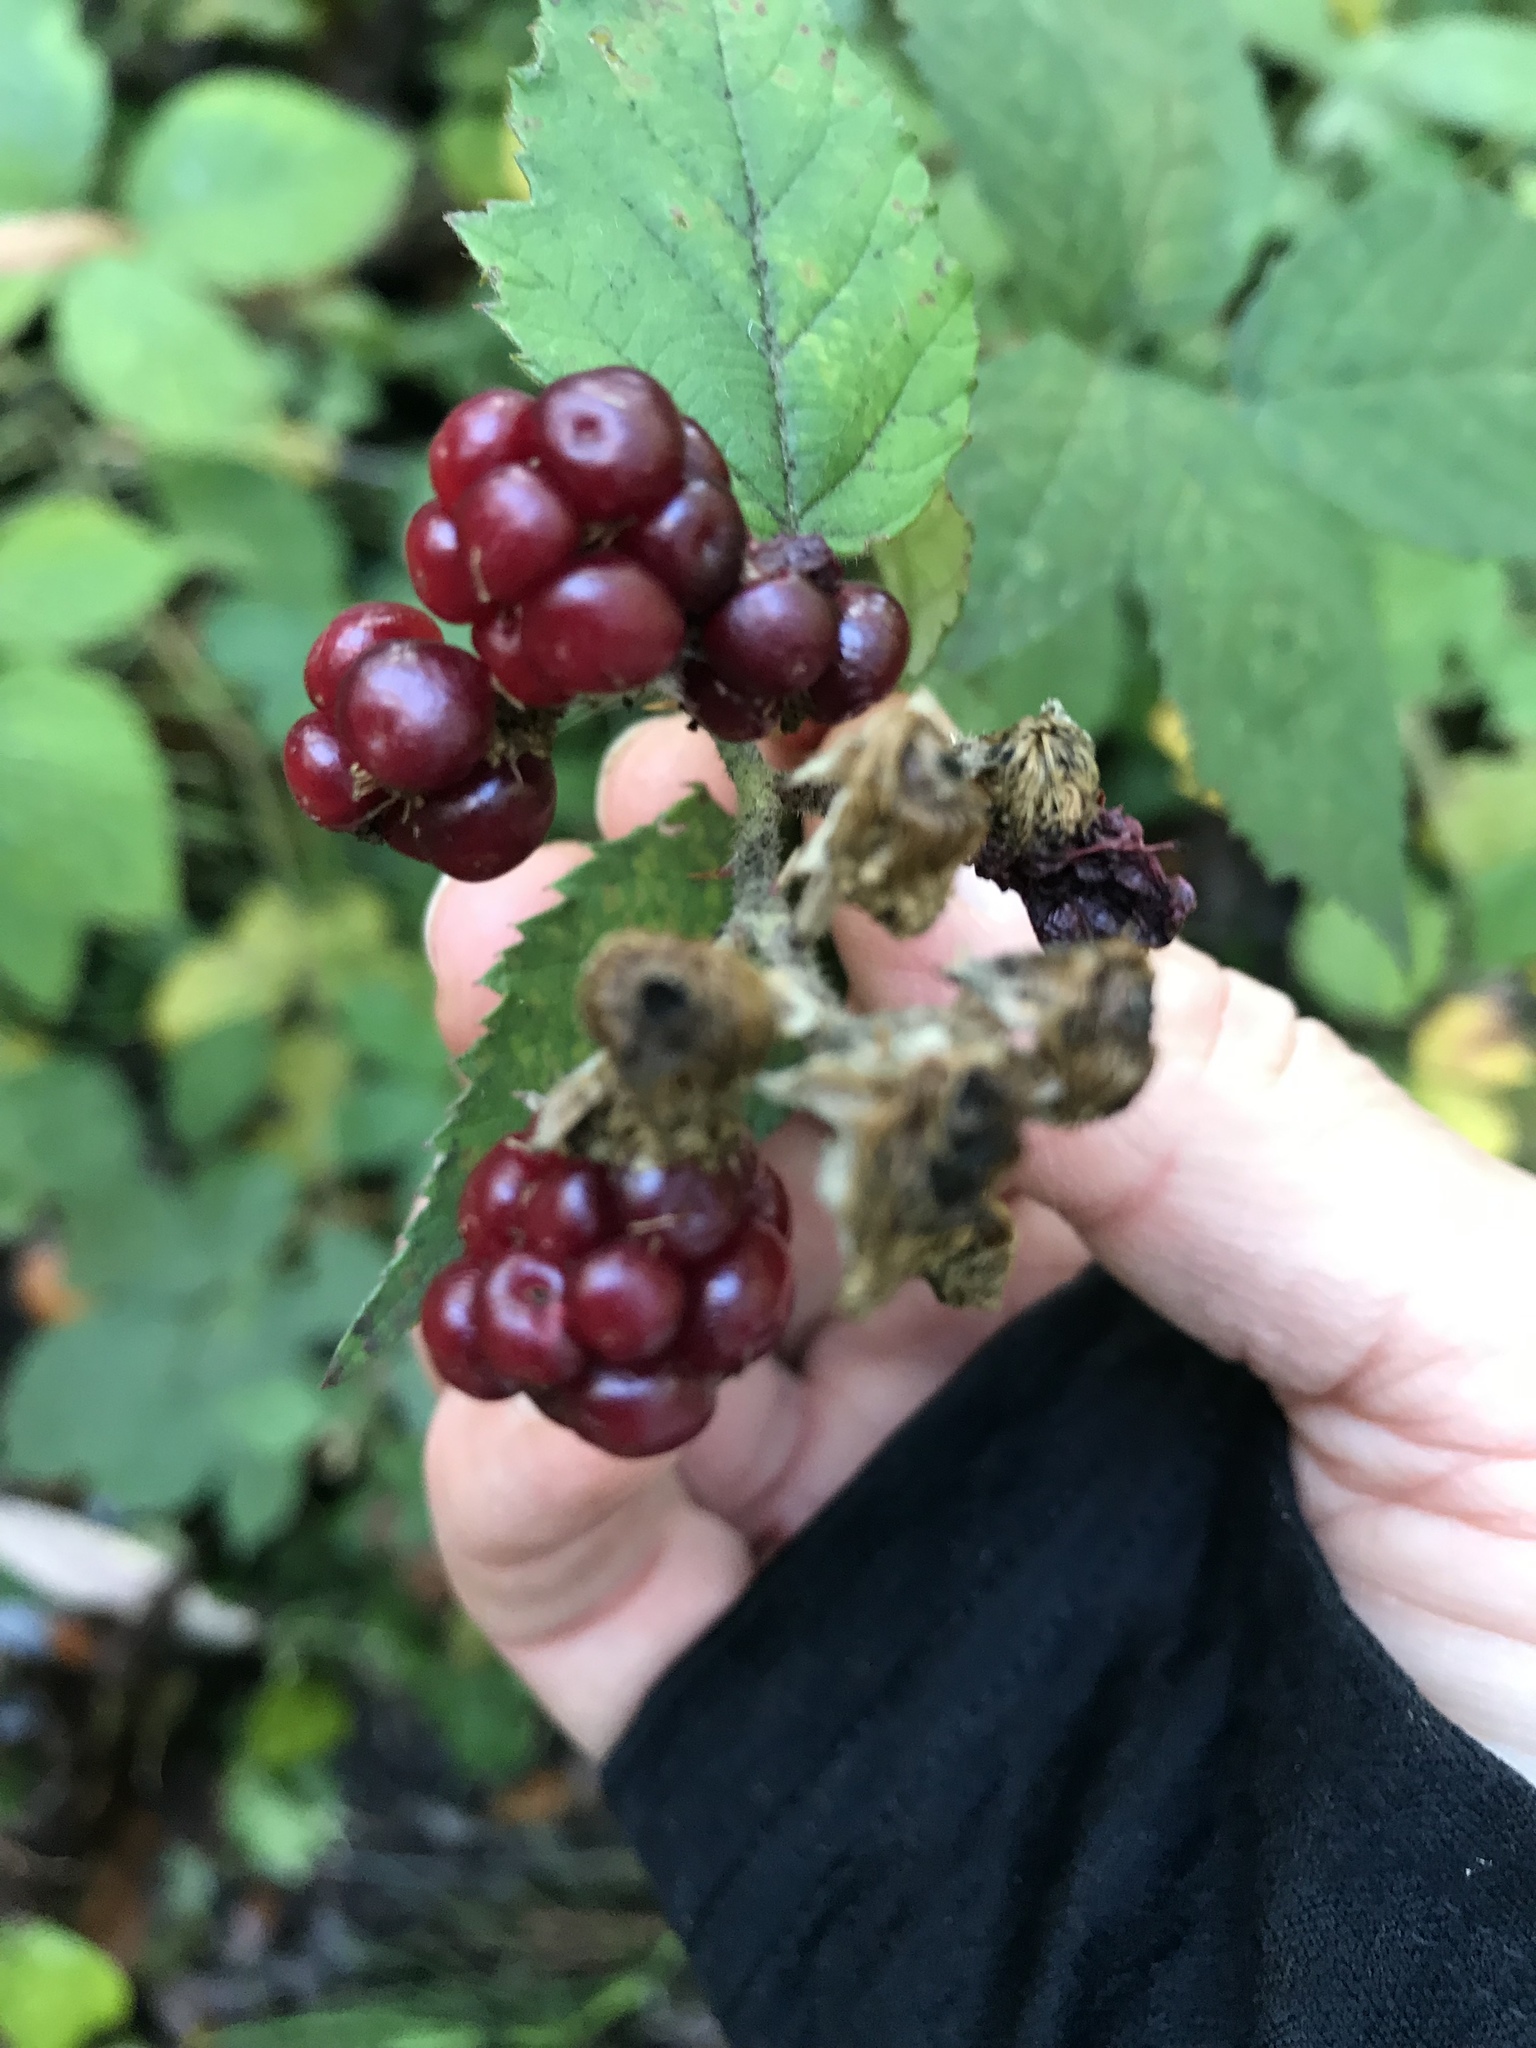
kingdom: Plantae
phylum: Tracheophyta
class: Magnoliopsida
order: Rosales
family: Rosaceae
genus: Rubus
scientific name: Rubus armeniacus
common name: Himalayan blackberry
